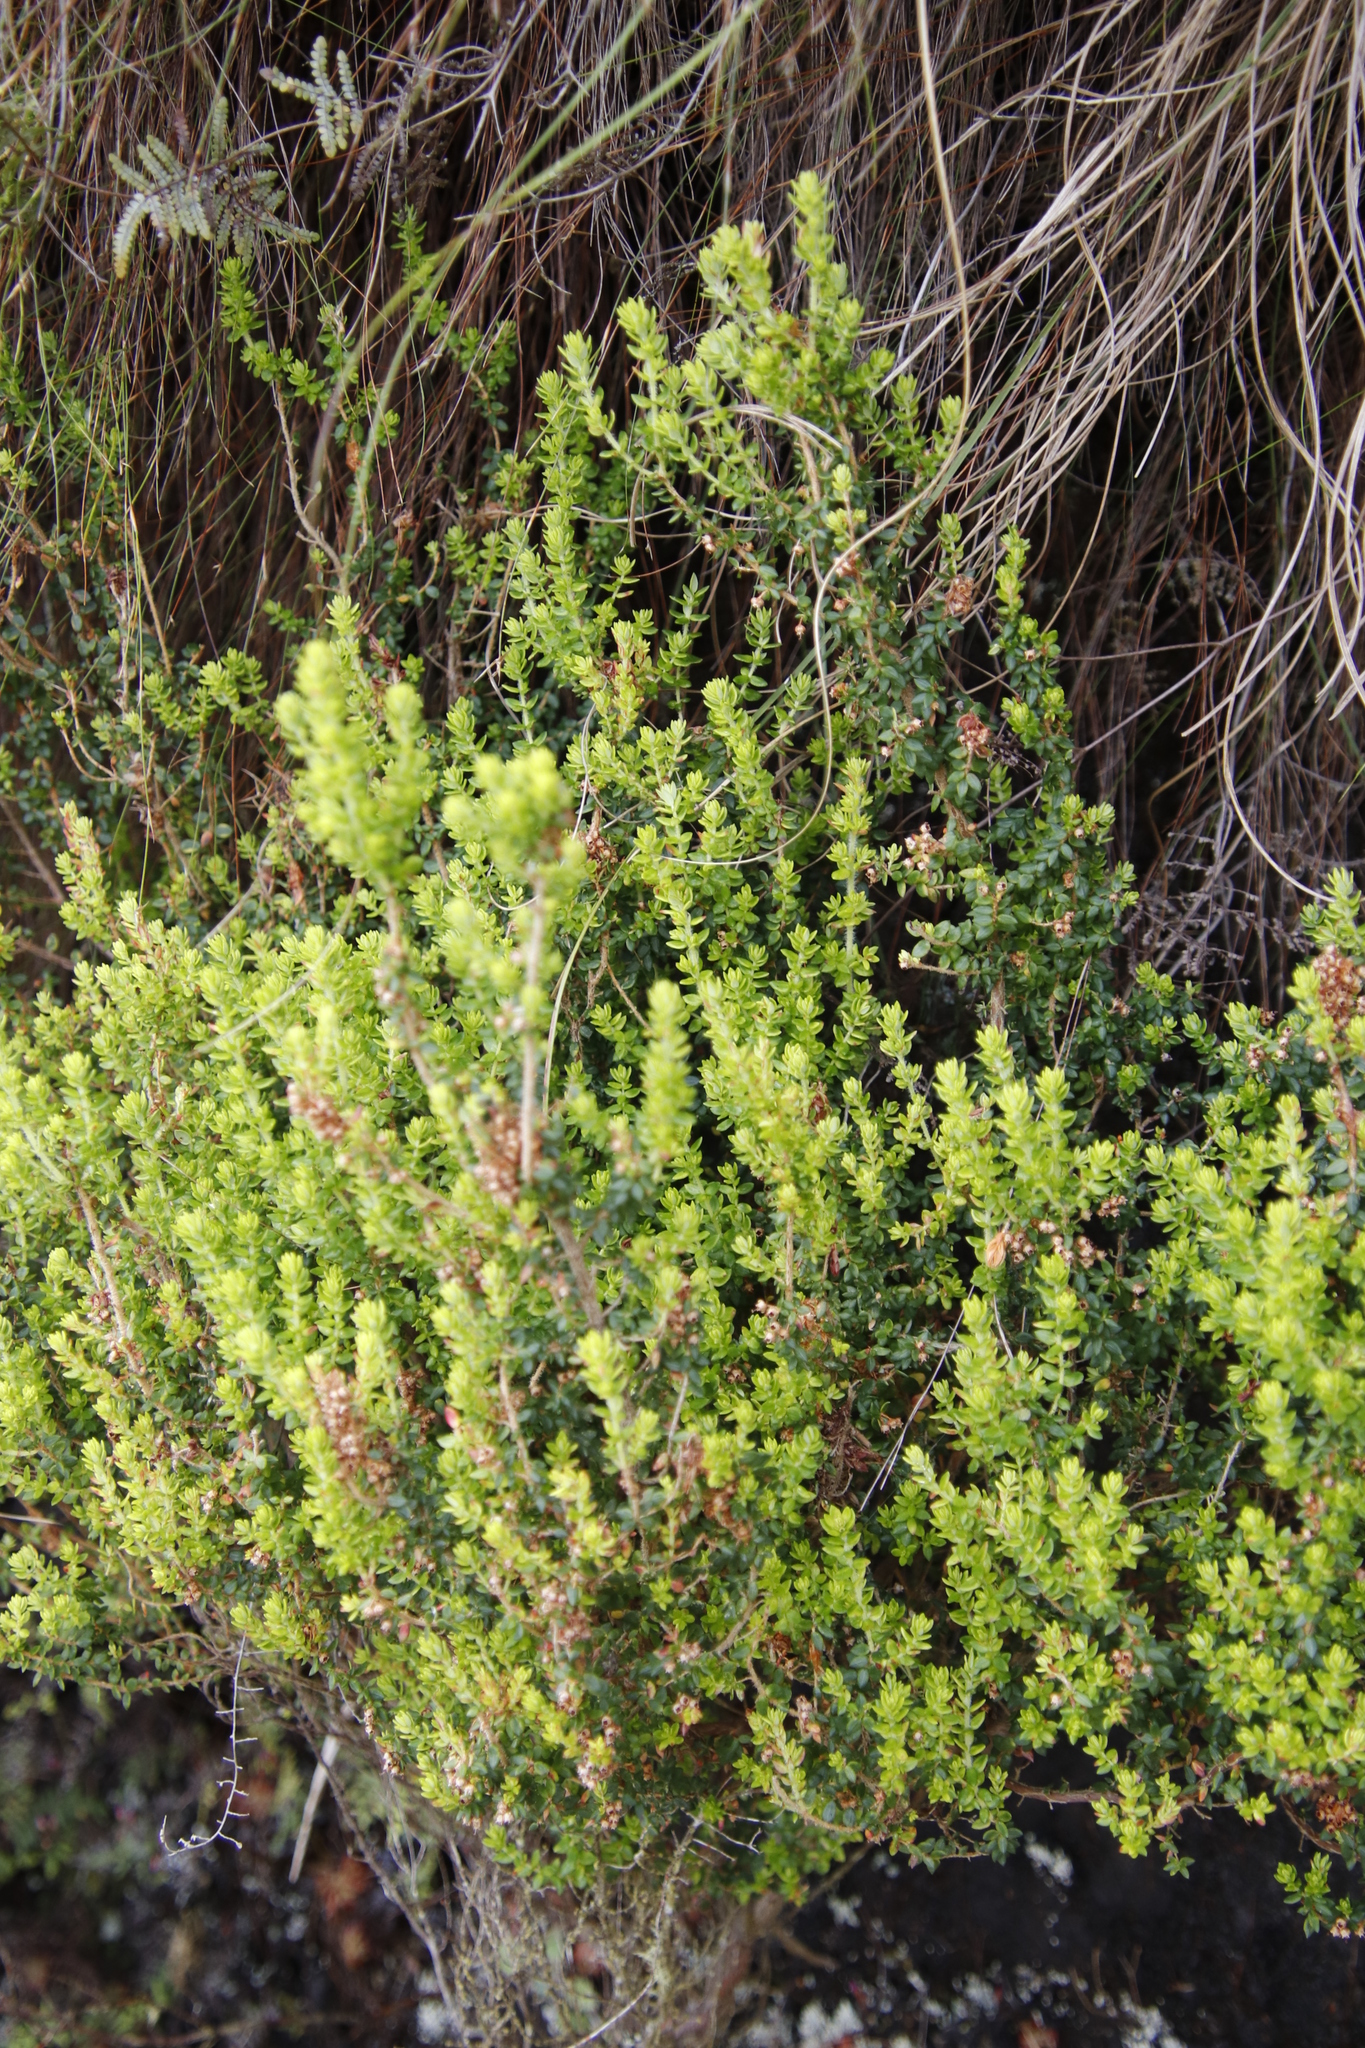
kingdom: Plantae
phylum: Tracheophyta
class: Magnoliopsida
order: Ericales
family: Ericaceae
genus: Erica
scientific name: Erica hispidula
